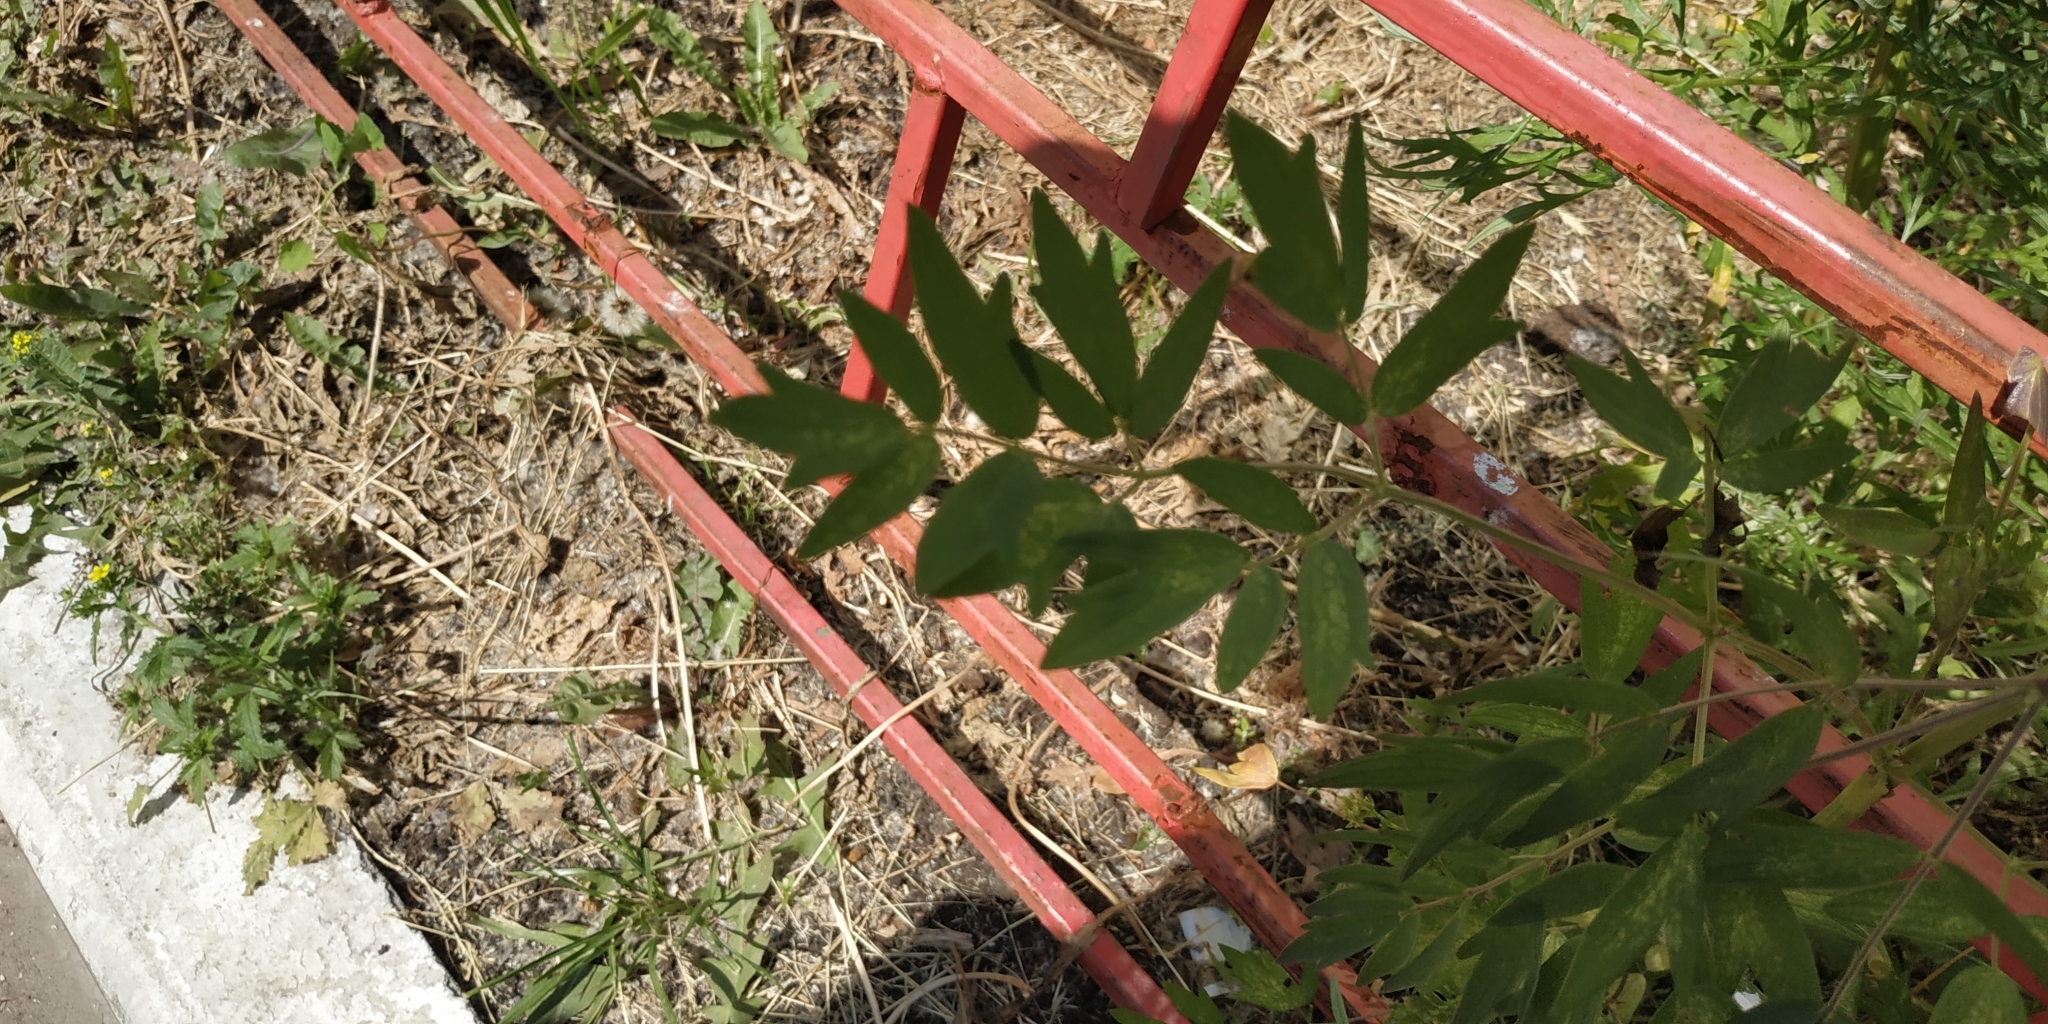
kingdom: Plantae
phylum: Tracheophyta
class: Magnoliopsida
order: Ranunculales
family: Ranunculaceae
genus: Thalictrum
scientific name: Thalictrum simplex
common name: Small meadow-rue
